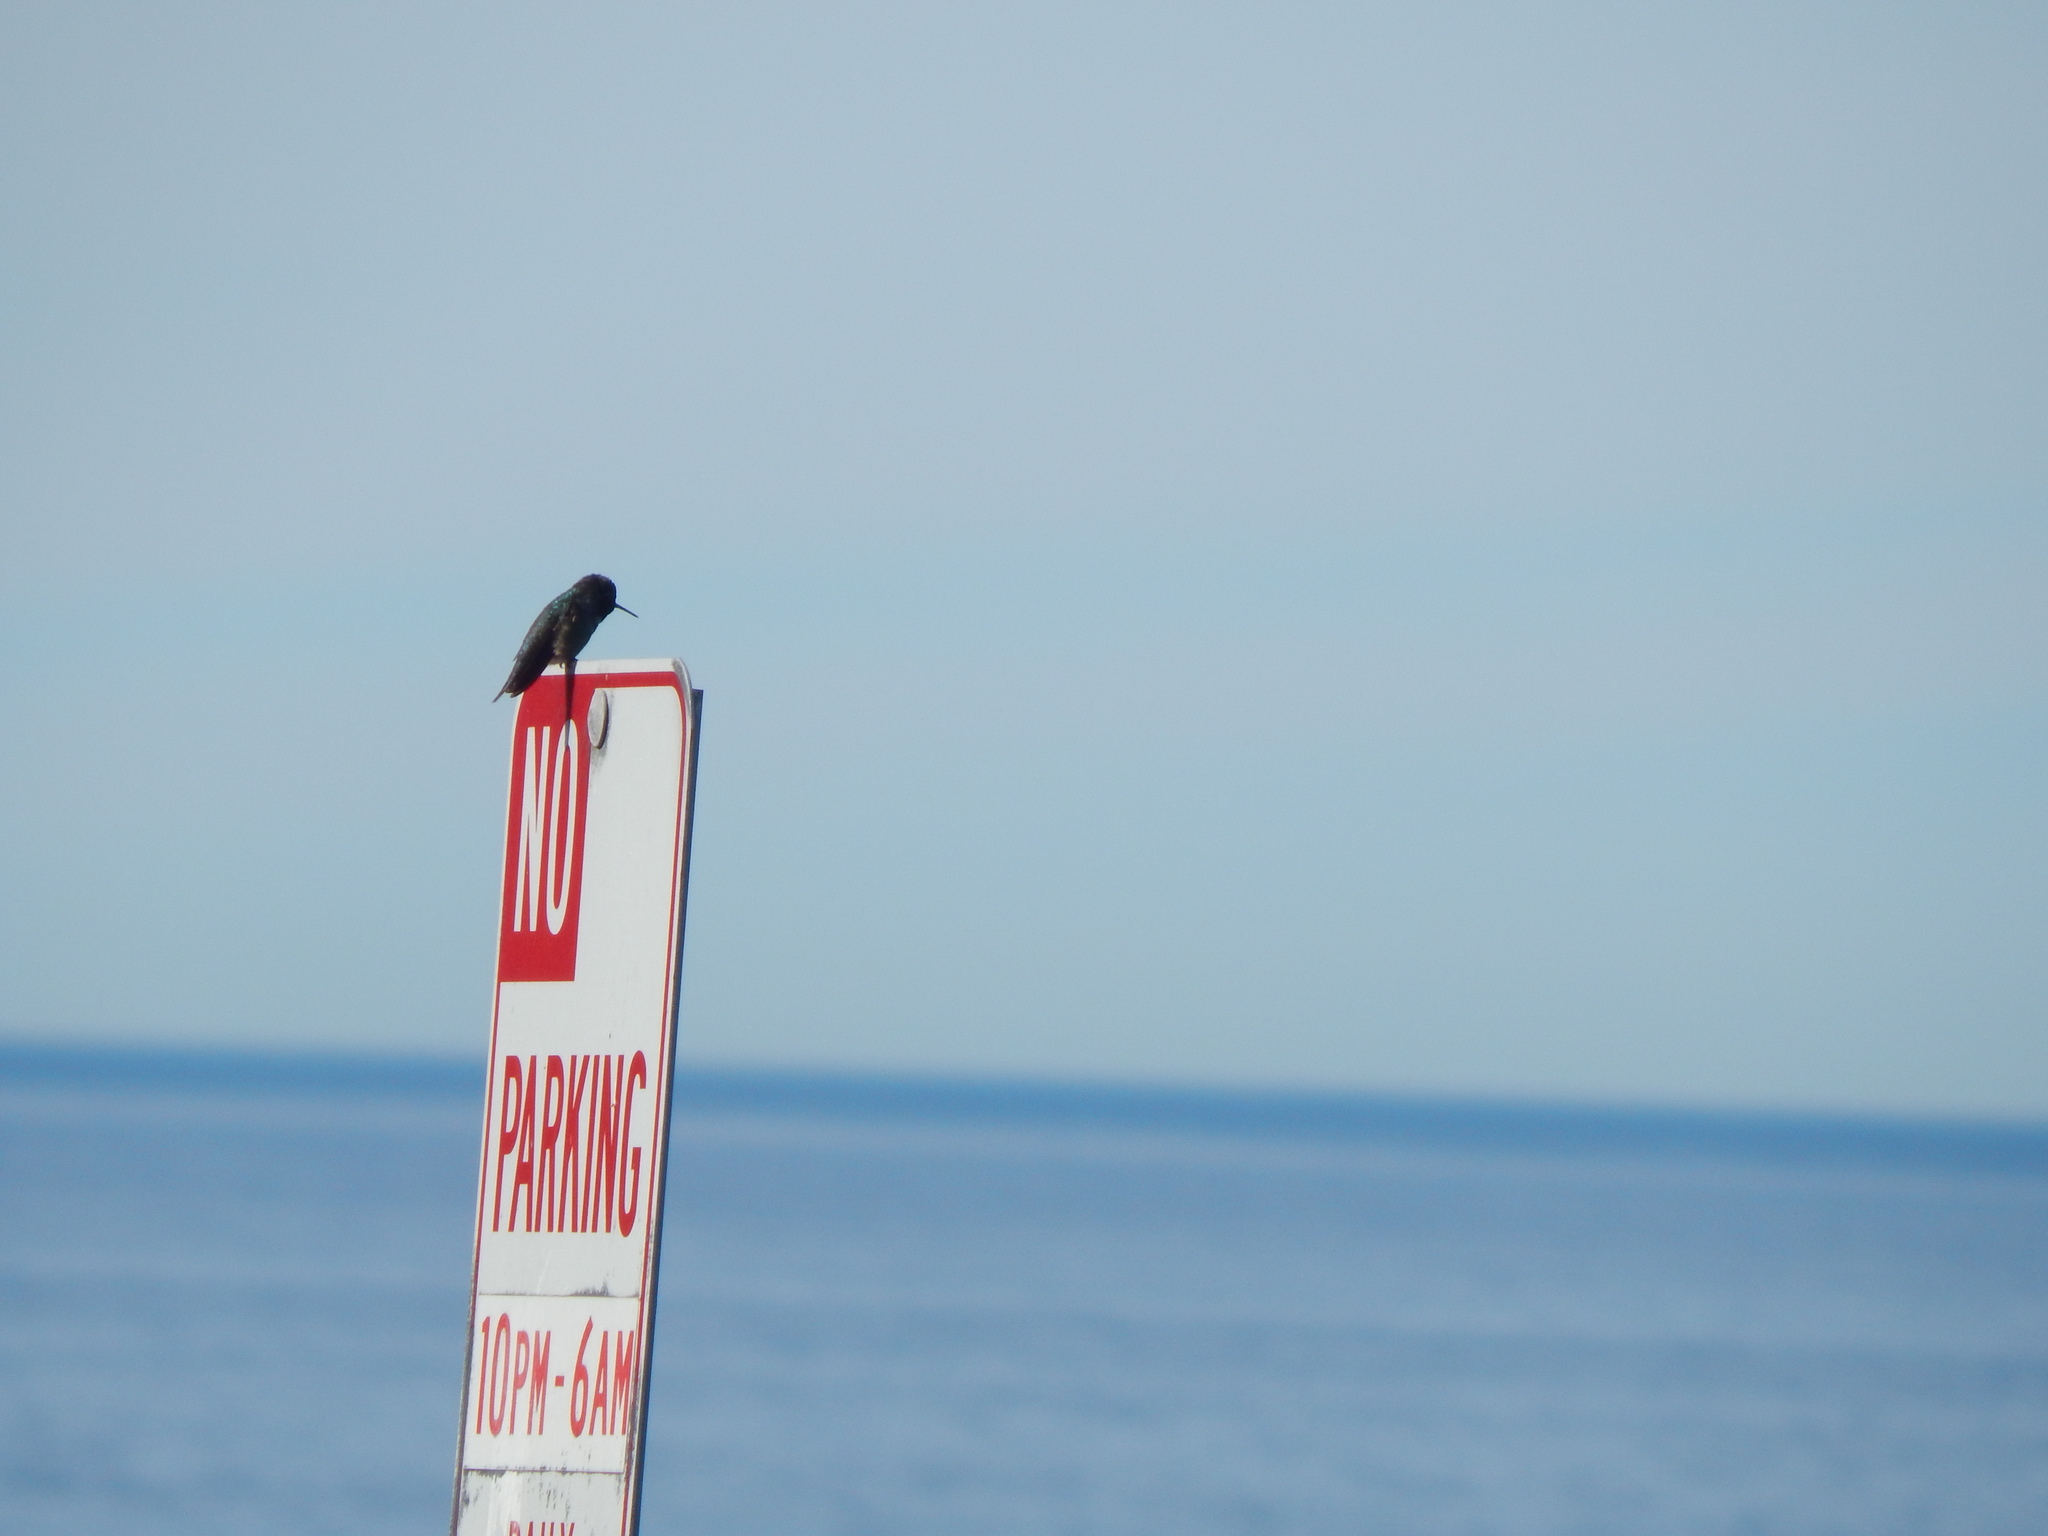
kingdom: Animalia
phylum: Chordata
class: Aves
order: Apodiformes
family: Trochilidae
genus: Calypte
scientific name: Calypte anna
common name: Anna's hummingbird
